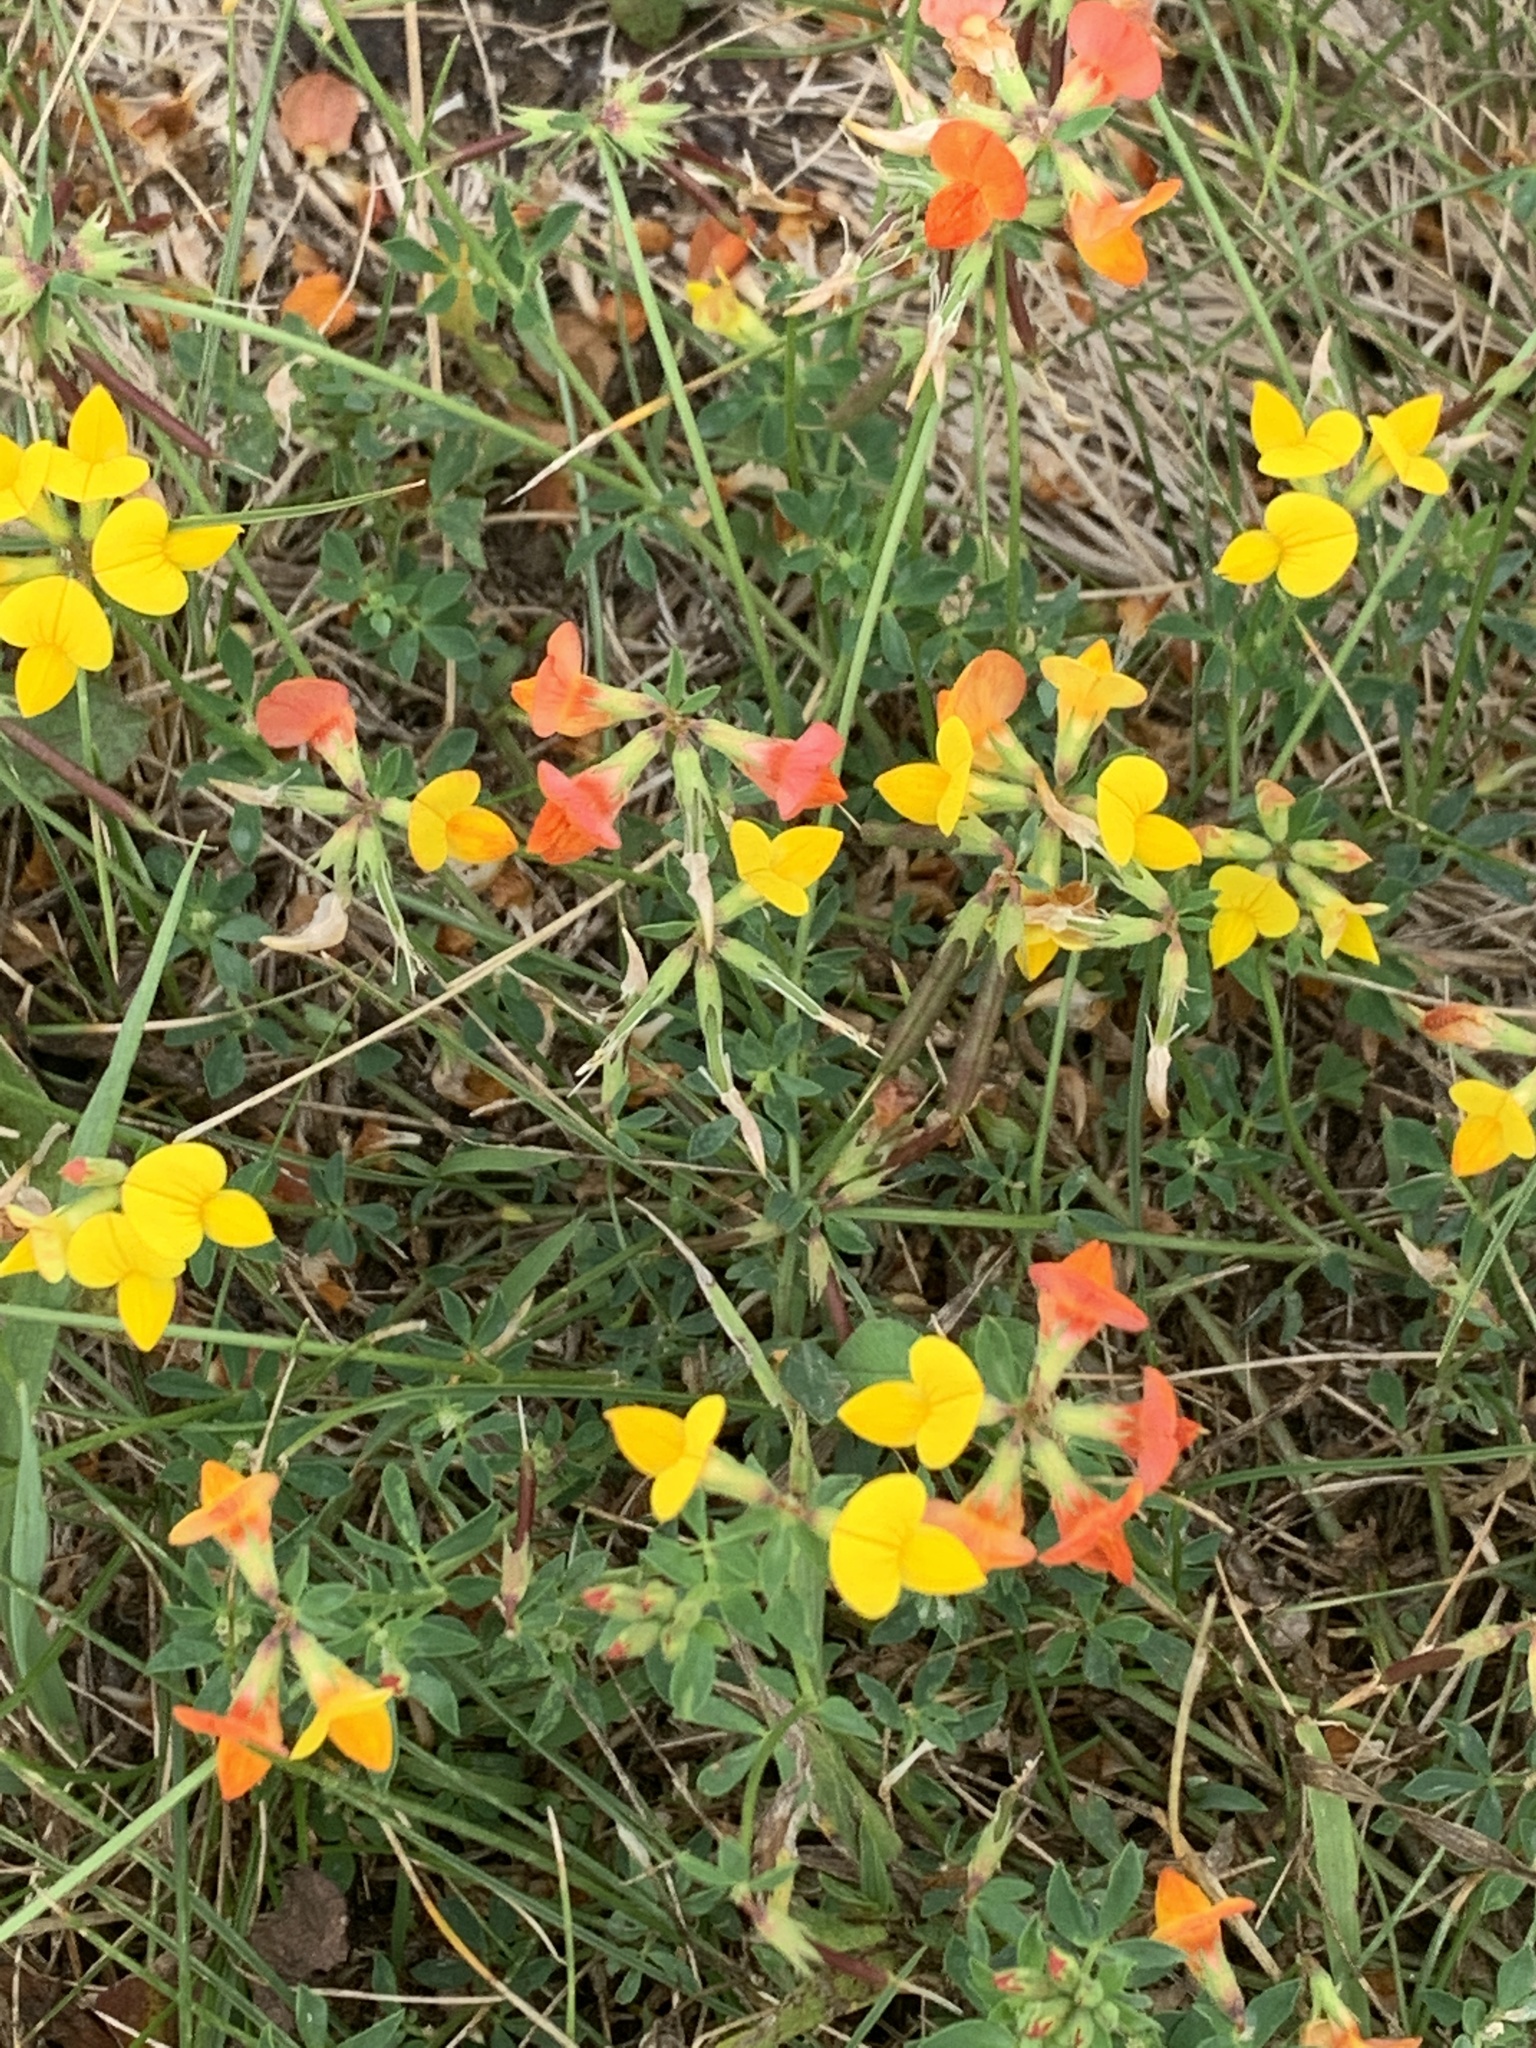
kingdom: Plantae
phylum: Tracheophyta
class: Magnoliopsida
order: Fabales
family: Fabaceae
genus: Lotus
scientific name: Lotus corniculatus
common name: Common bird's-foot-trefoil
